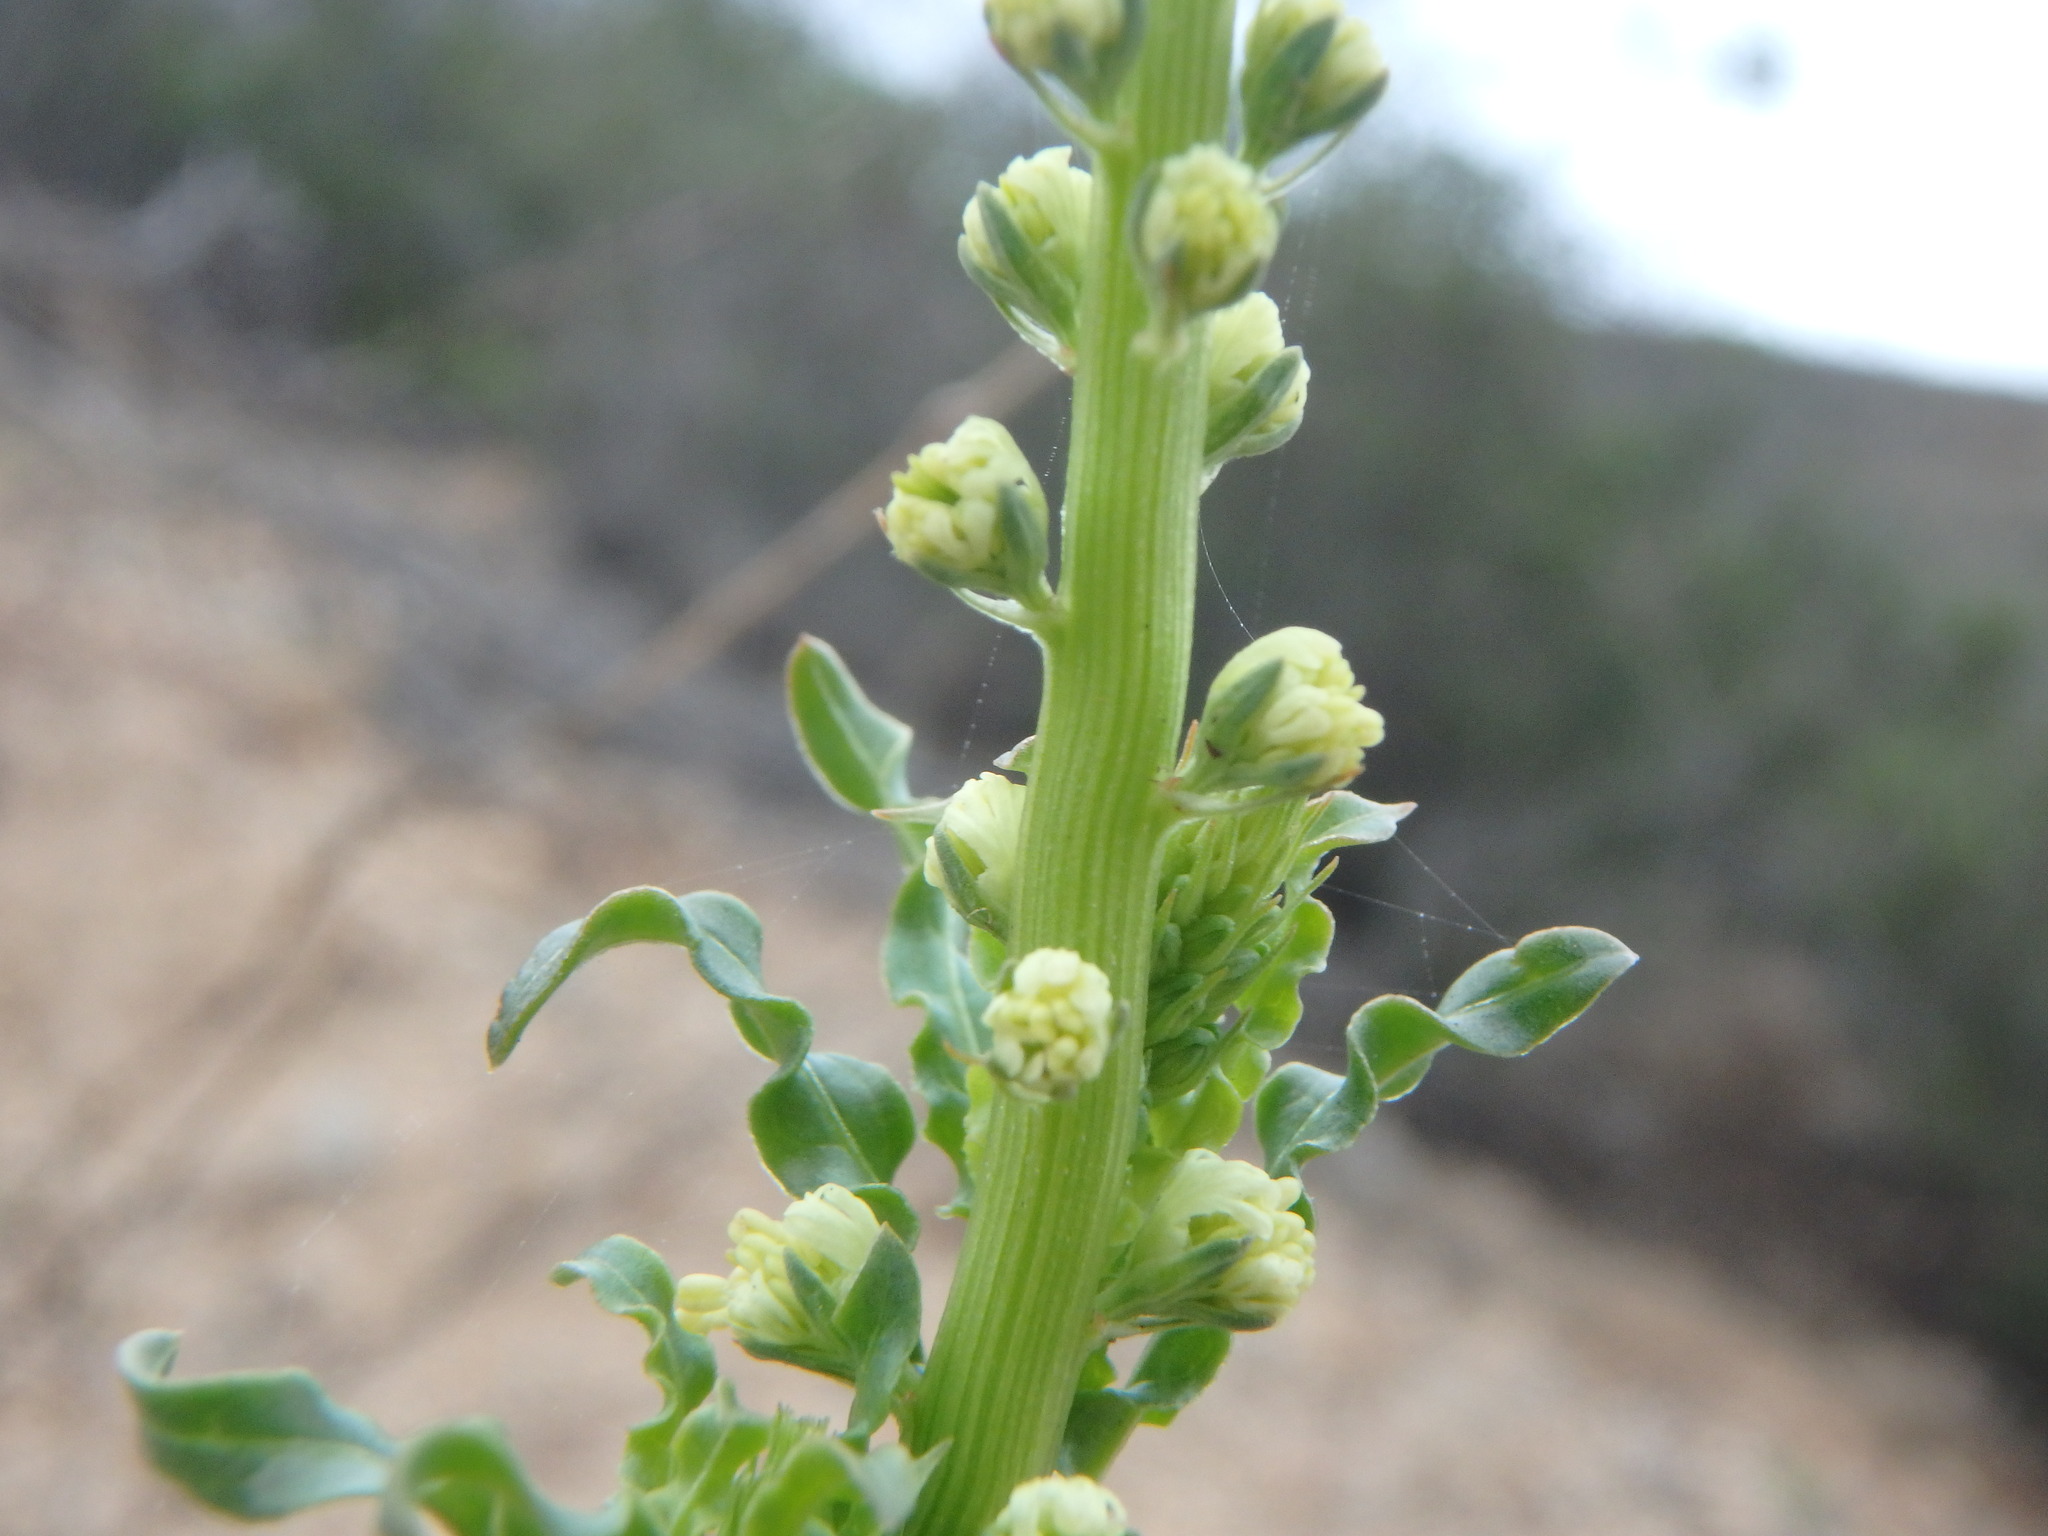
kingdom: Plantae
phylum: Tracheophyta
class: Magnoliopsida
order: Brassicales
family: Resedaceae
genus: Reseda
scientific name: Reseda luteola
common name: Weld
